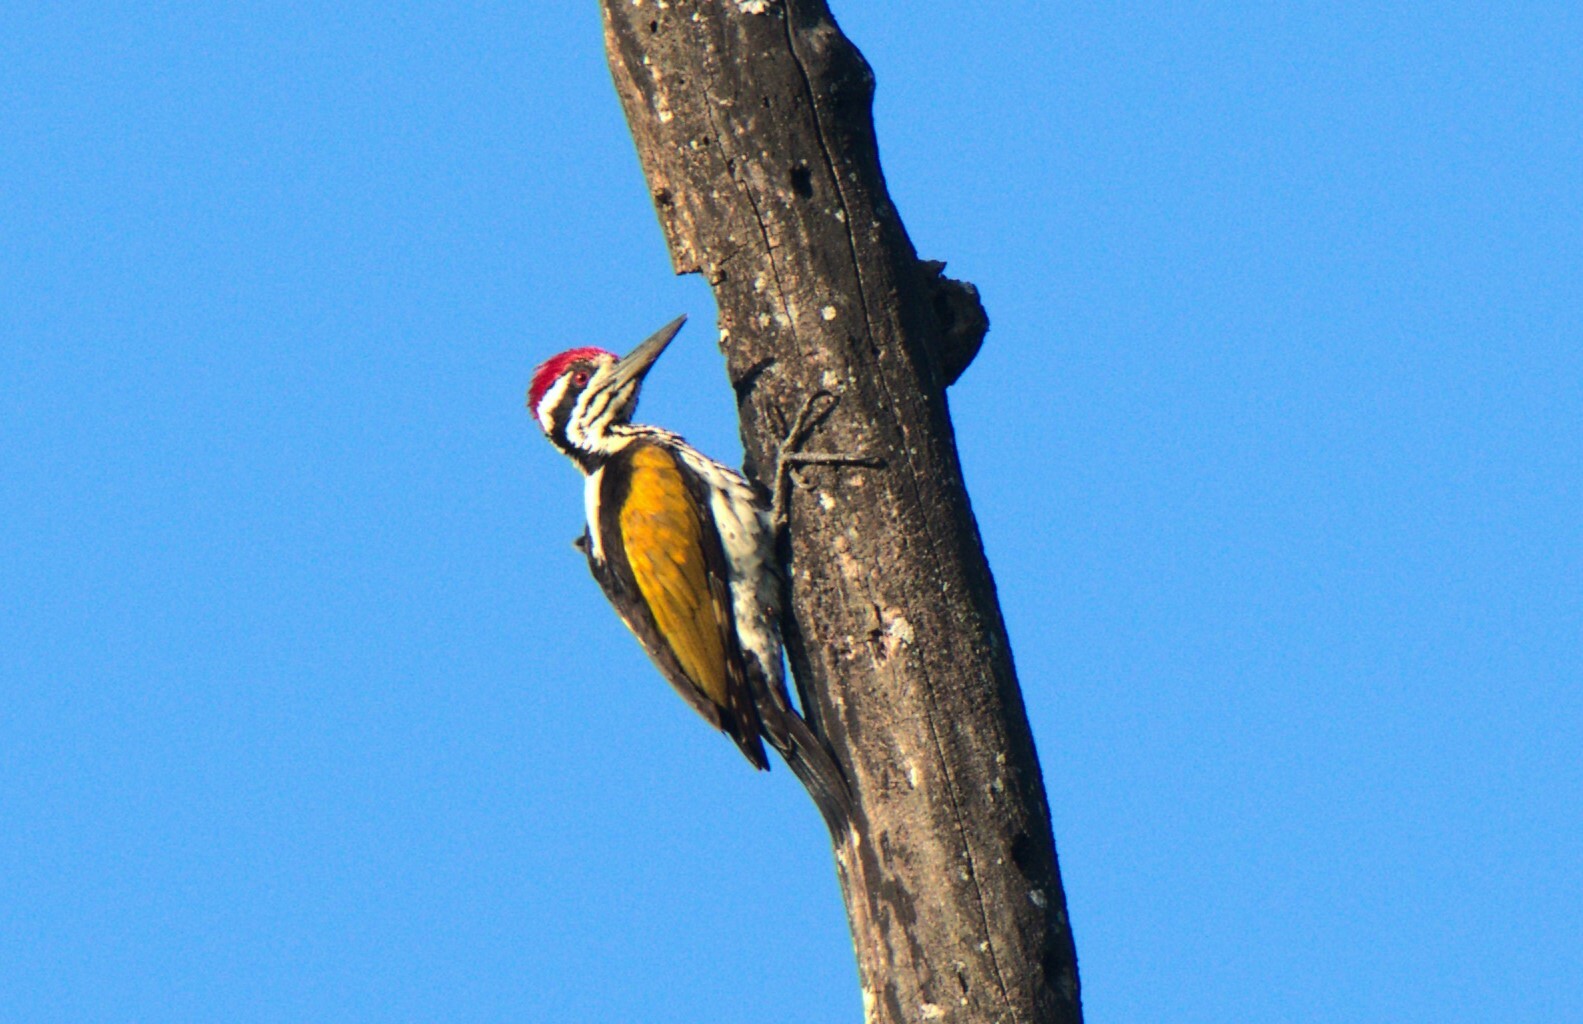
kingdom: Animalia
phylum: Chordata
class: Aves
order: Piciformes
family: Picidae
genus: Chrysocolaptes
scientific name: Chrysocolaptes festivus
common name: White-naped woodpecker
